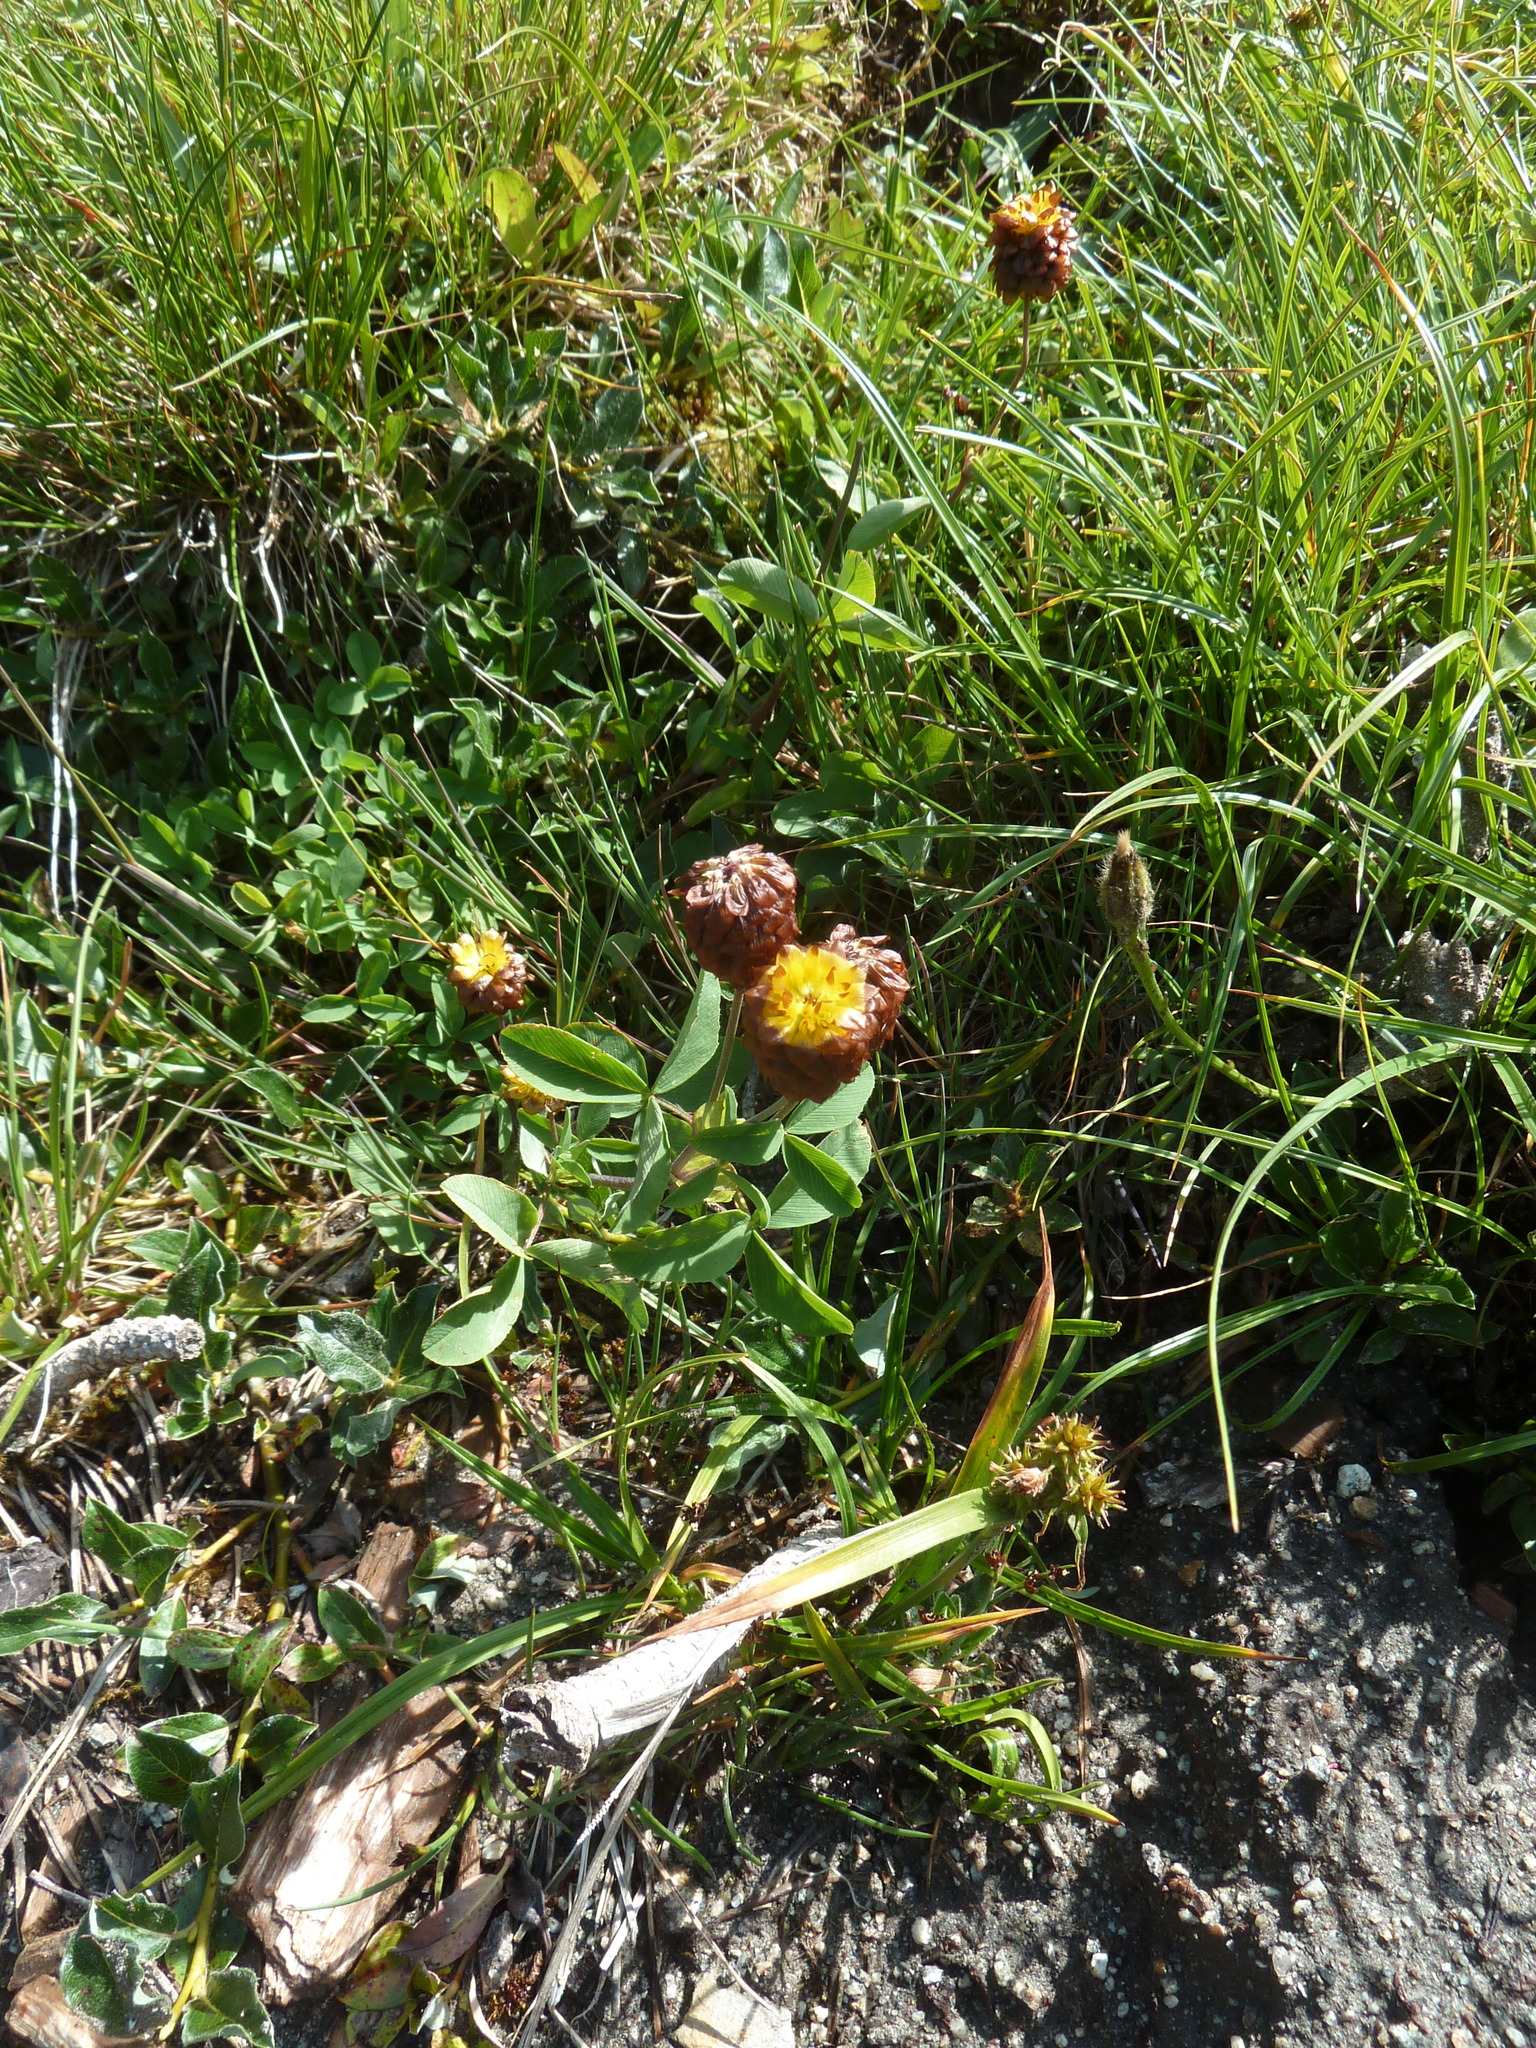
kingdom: Plantae
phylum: Tracheophyta
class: Magnoliopsida
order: Fabales
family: Fabaceae
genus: Trifolium
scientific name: Trifolium badium
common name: Brown clover
